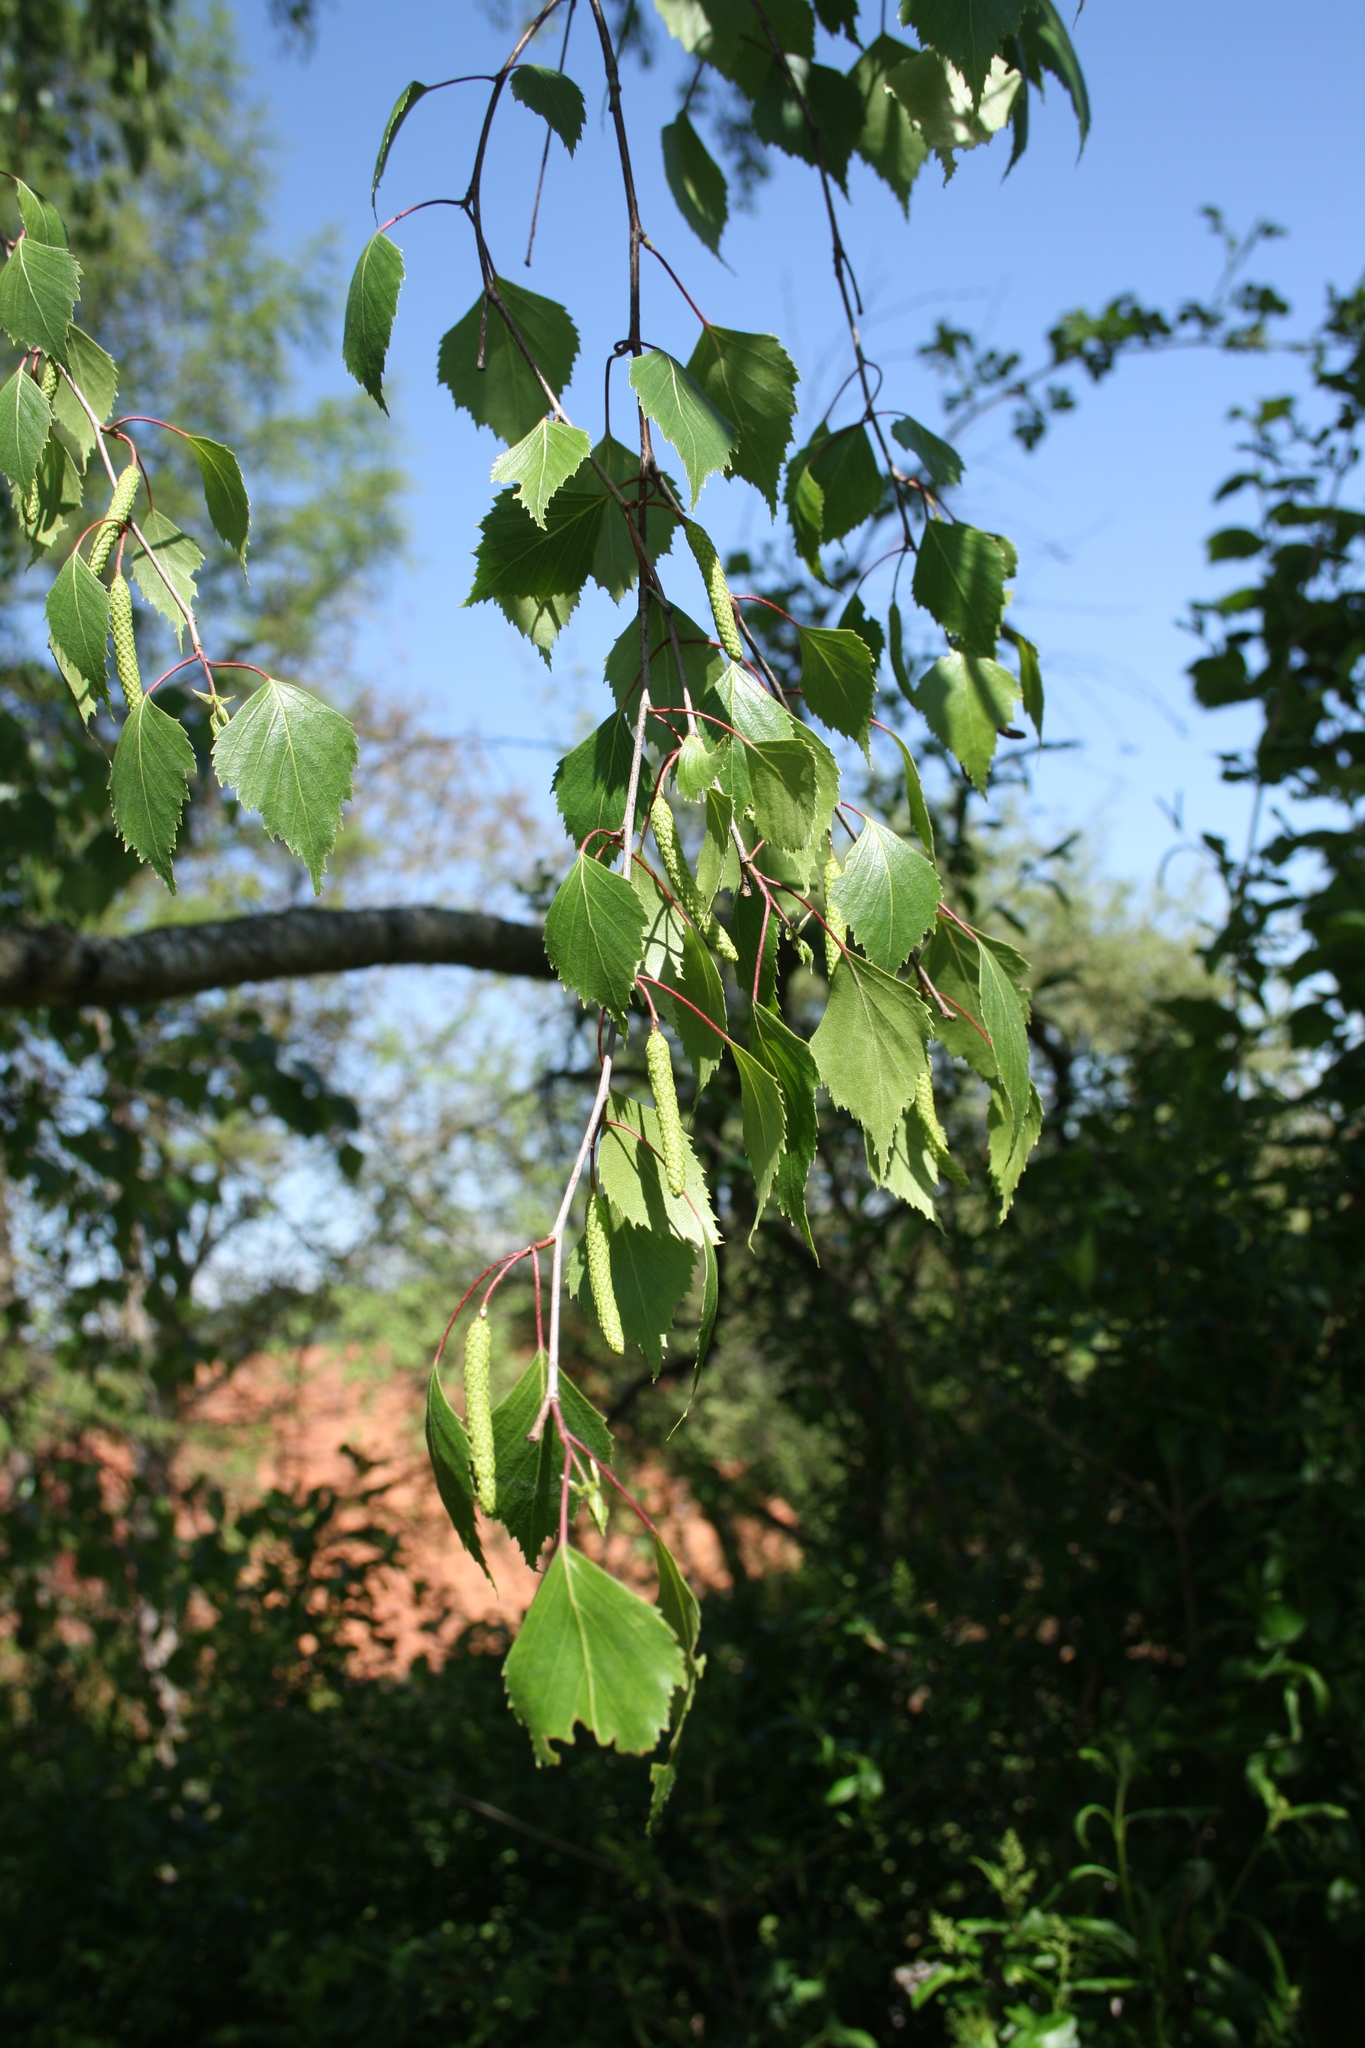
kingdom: Plantae
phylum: Tracheophyta
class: Magnoliopsida
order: Fagales
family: Betulaceae
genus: Betula
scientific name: Betula pendula
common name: Silver birch
